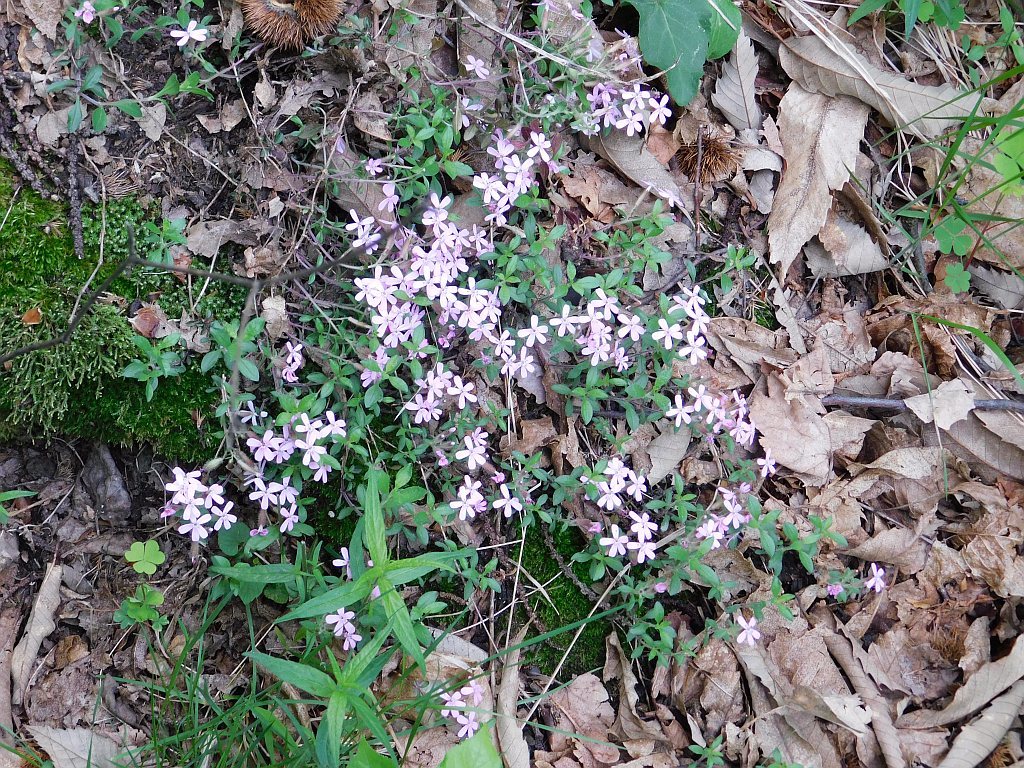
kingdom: Plantae
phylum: Tracheophyta
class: Magnoliopsida
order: Caryophyllales
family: Caryophyllaceae
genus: Saponaria
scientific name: Saponaria ocymoides
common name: Rock soapwort
